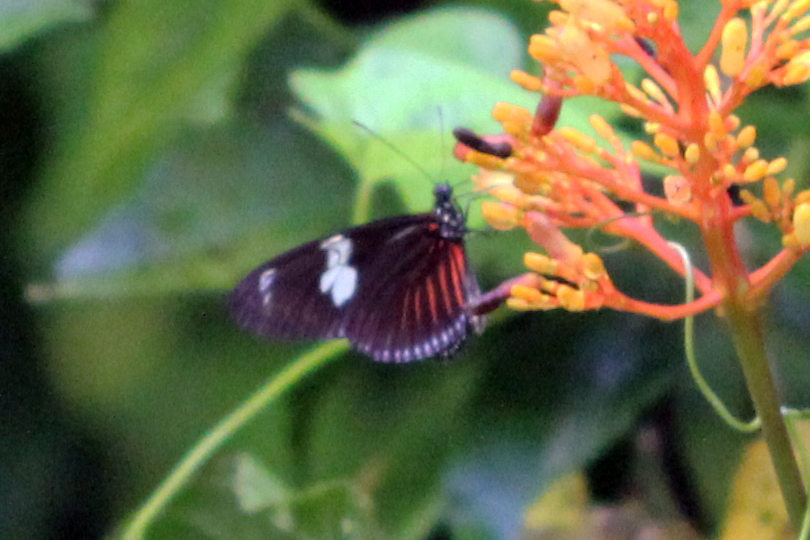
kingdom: Animalia
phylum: Arthropoda
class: Insecta
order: Lepidoptera
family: Nymphalidae
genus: Heliconius
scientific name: Heliconius doris
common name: Doris longwing
